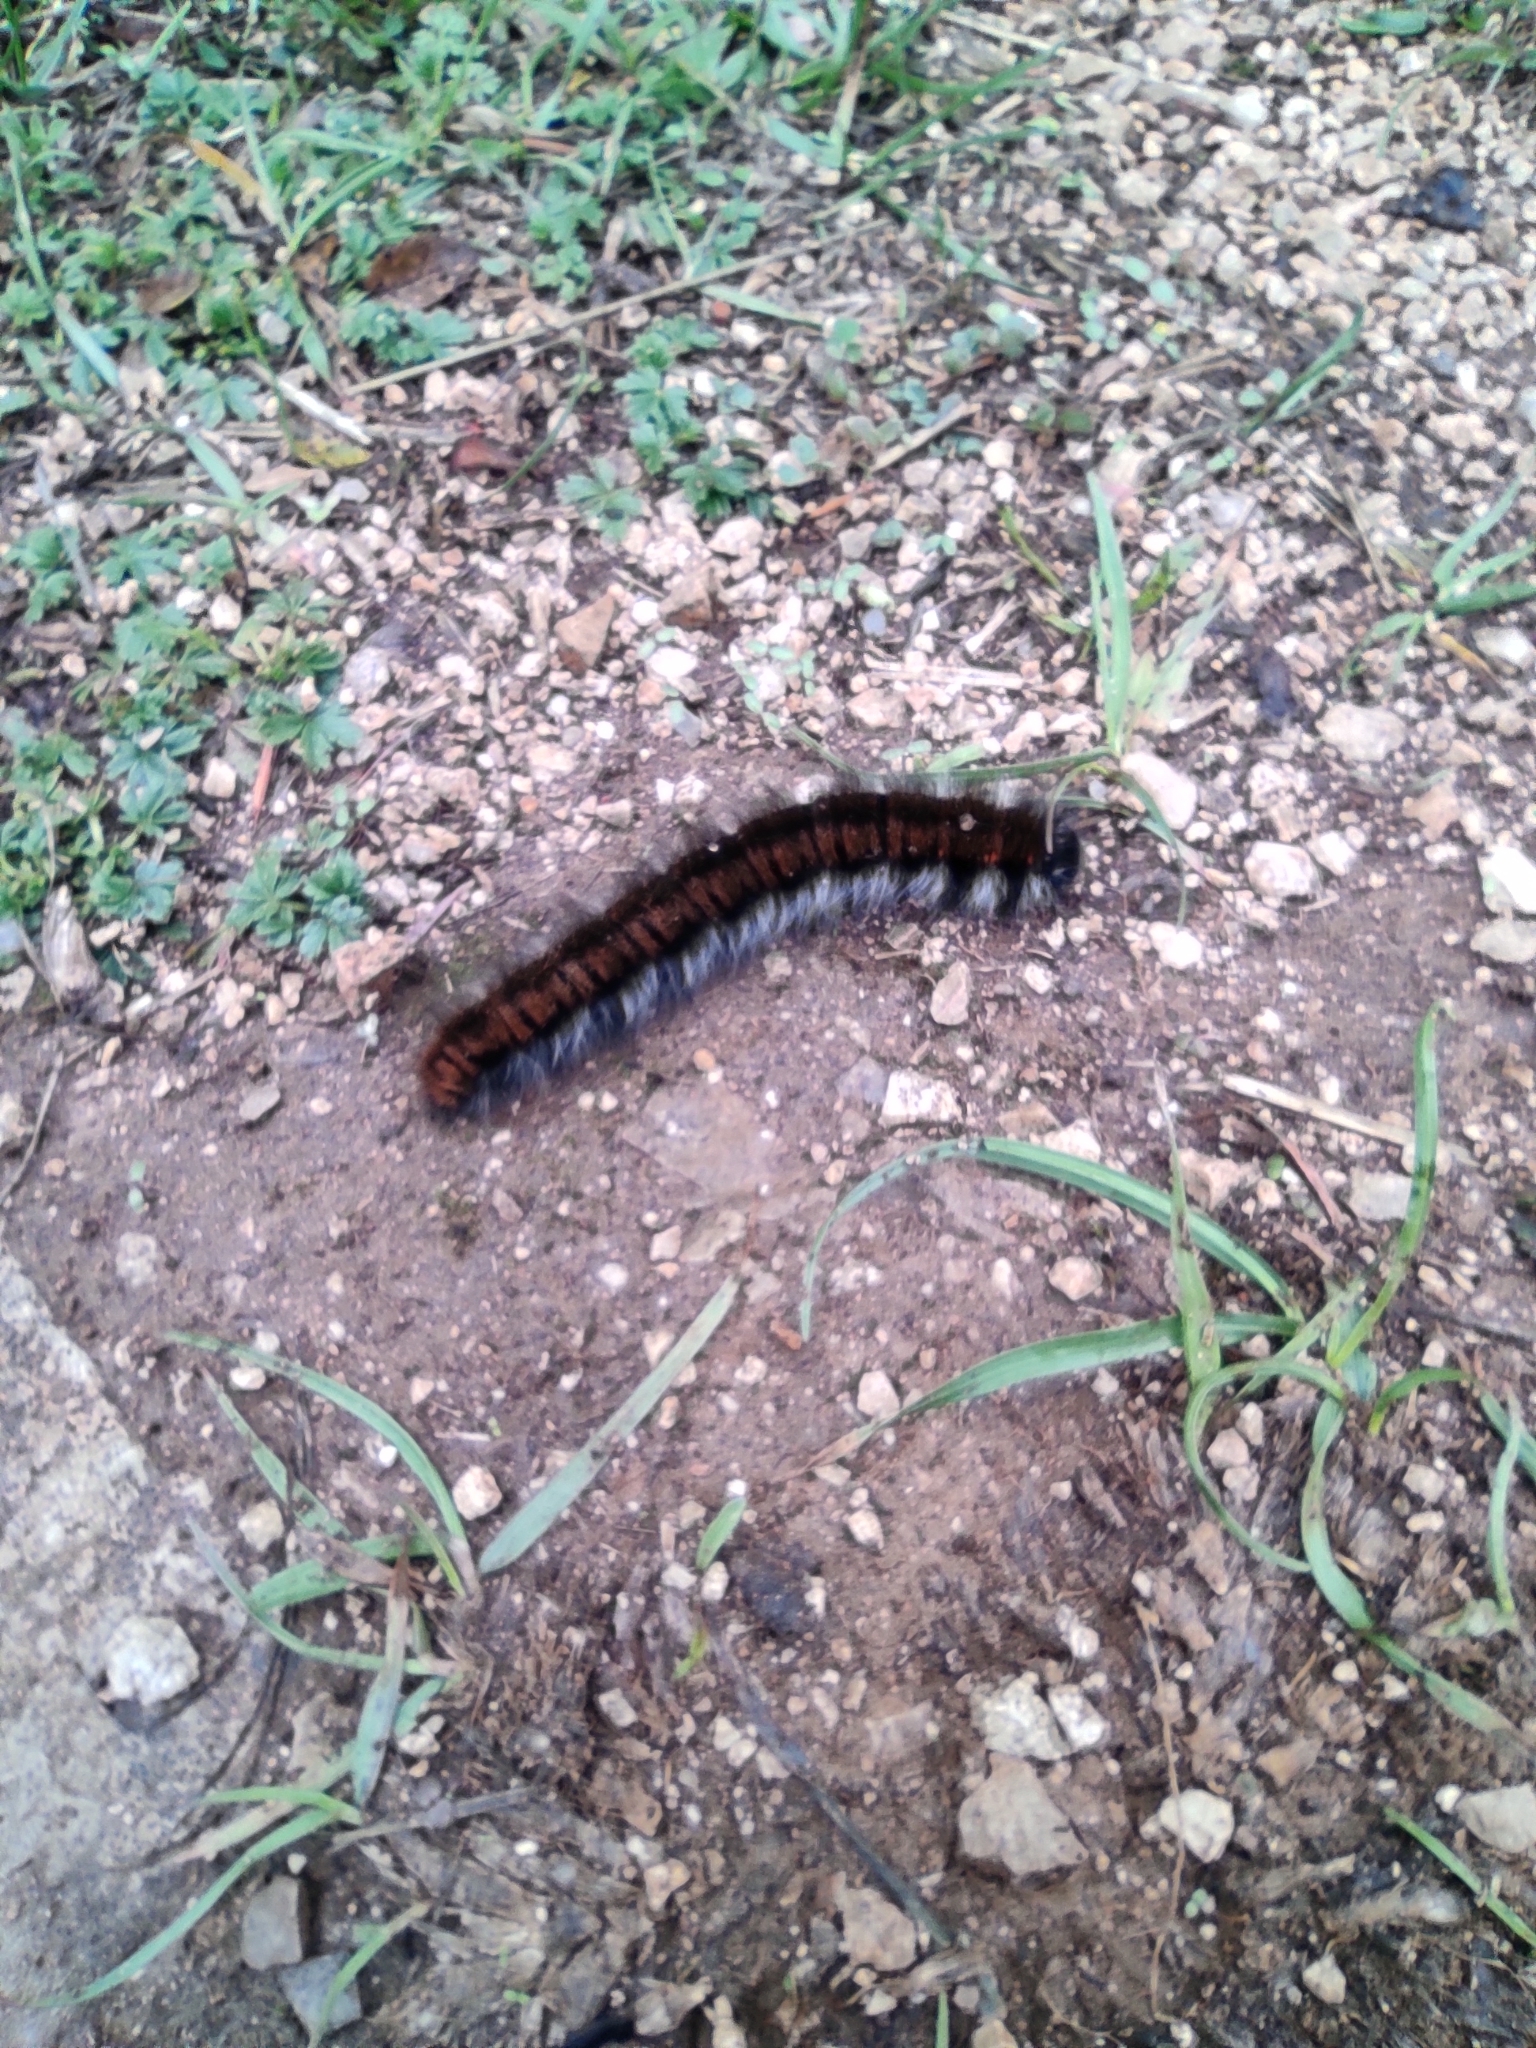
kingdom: Animalia
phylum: Arthropoda
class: Insecta
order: Lepidoptera
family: Lasiocampidae
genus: Macrothylacia
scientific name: Macrothylacia rubi
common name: Fox moth
